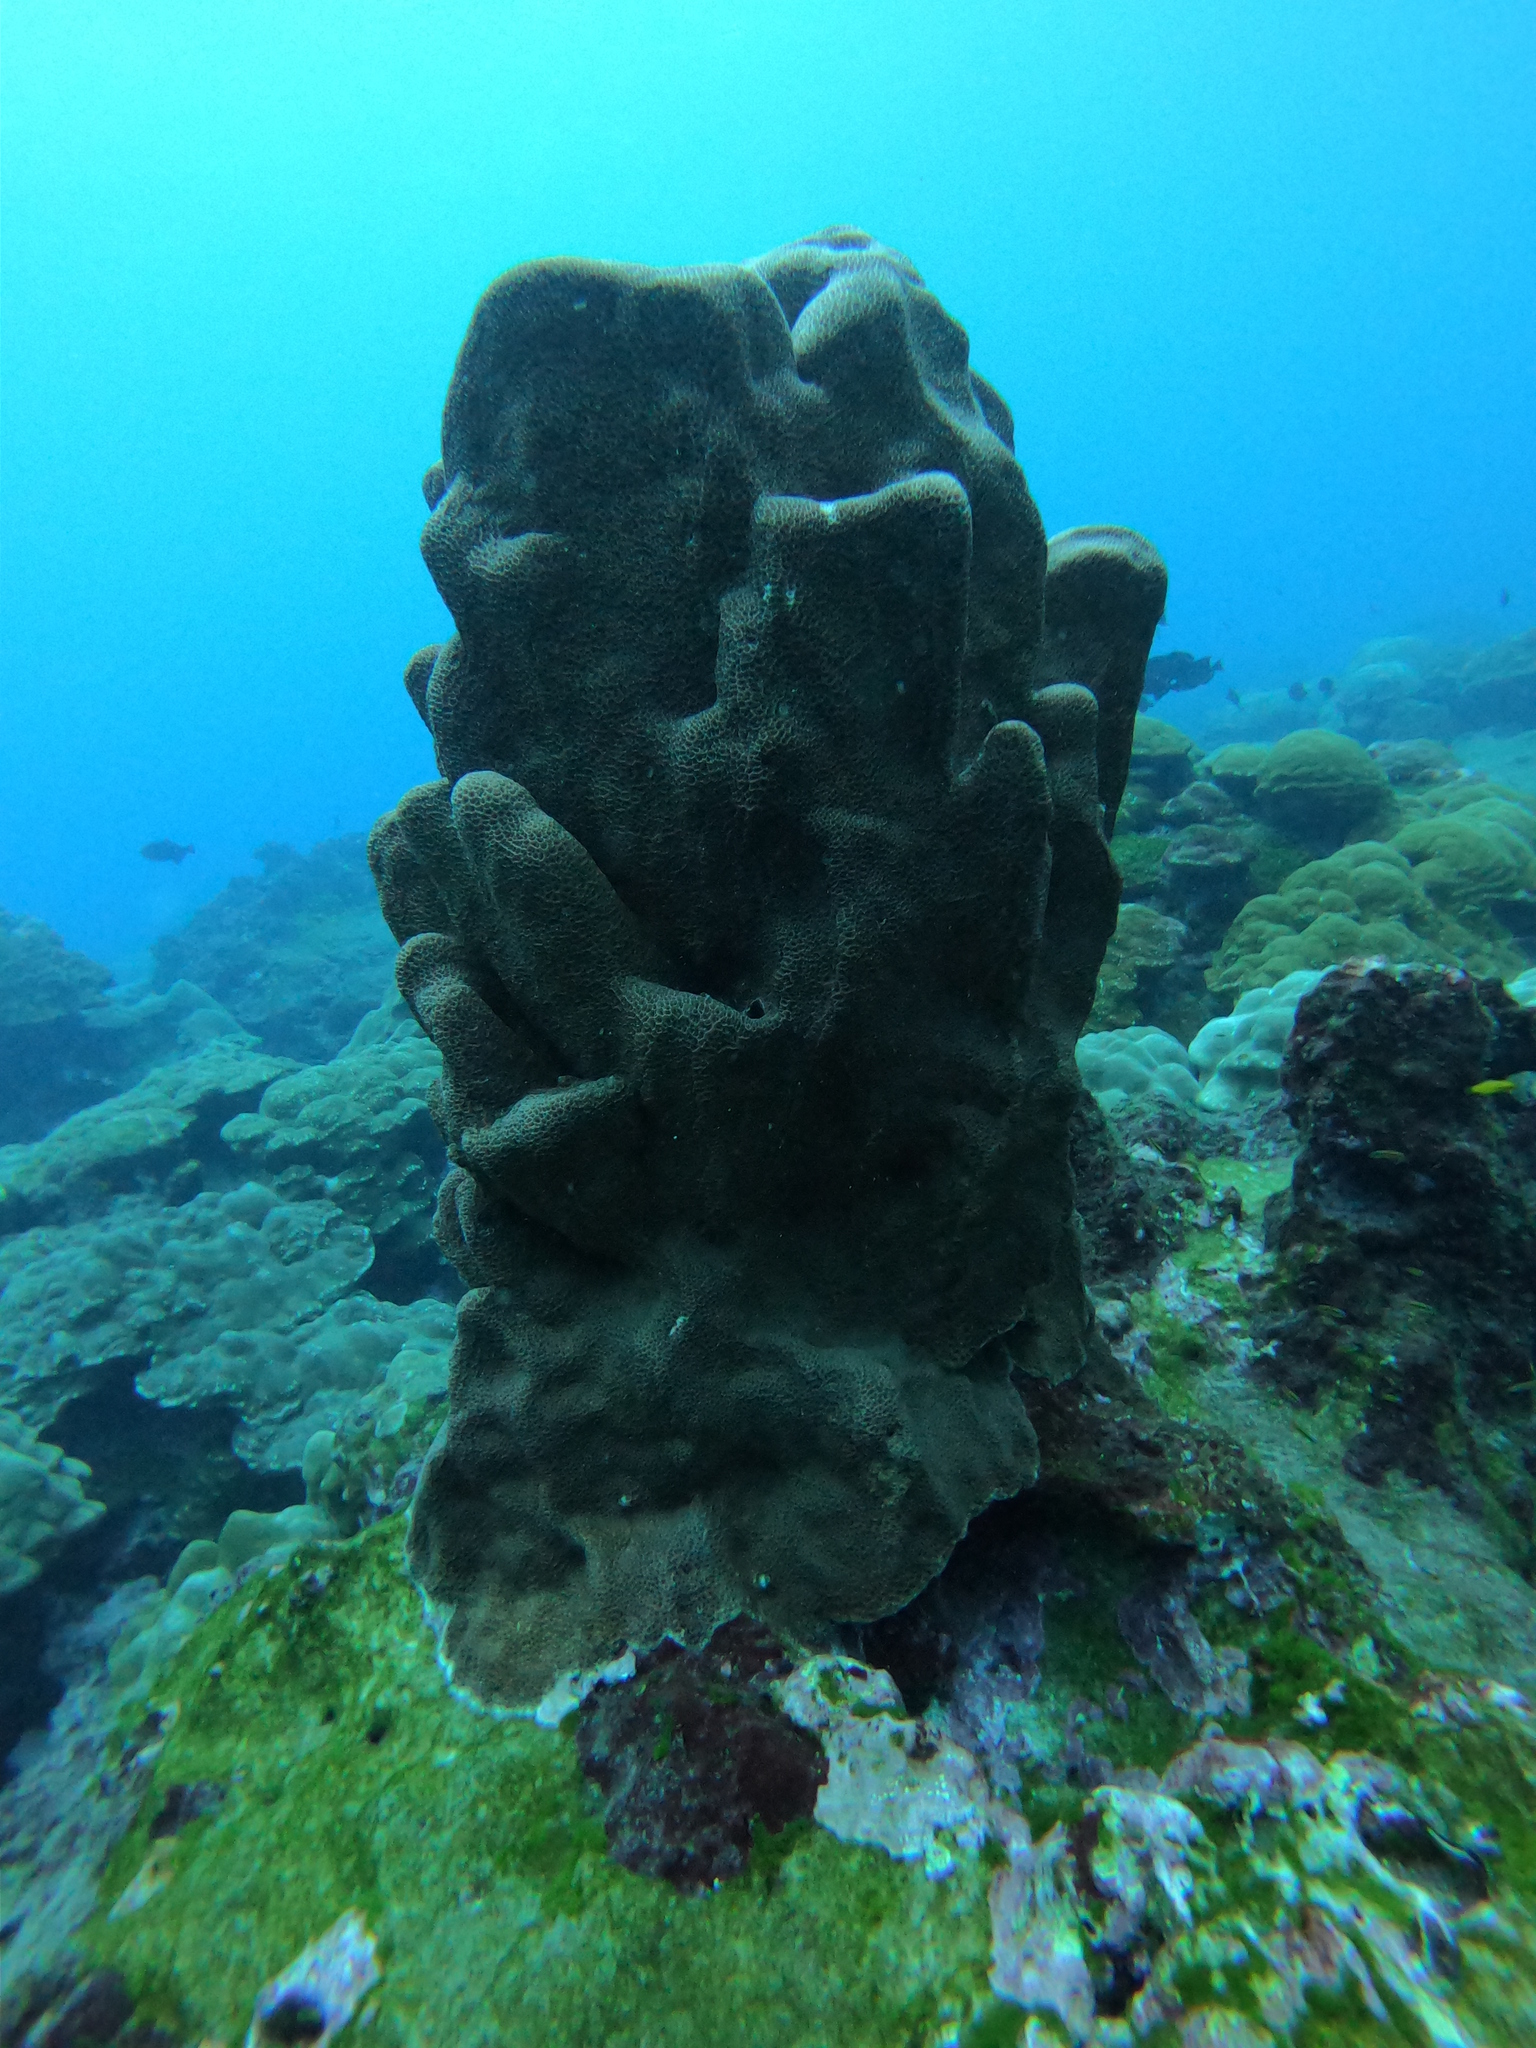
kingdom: Animalia
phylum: Cnidaria
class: Anthozoa
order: Scleractinia
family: Agariciidae
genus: Gardineroseris
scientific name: Gardineroseris planulata
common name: Gardiner's coral
